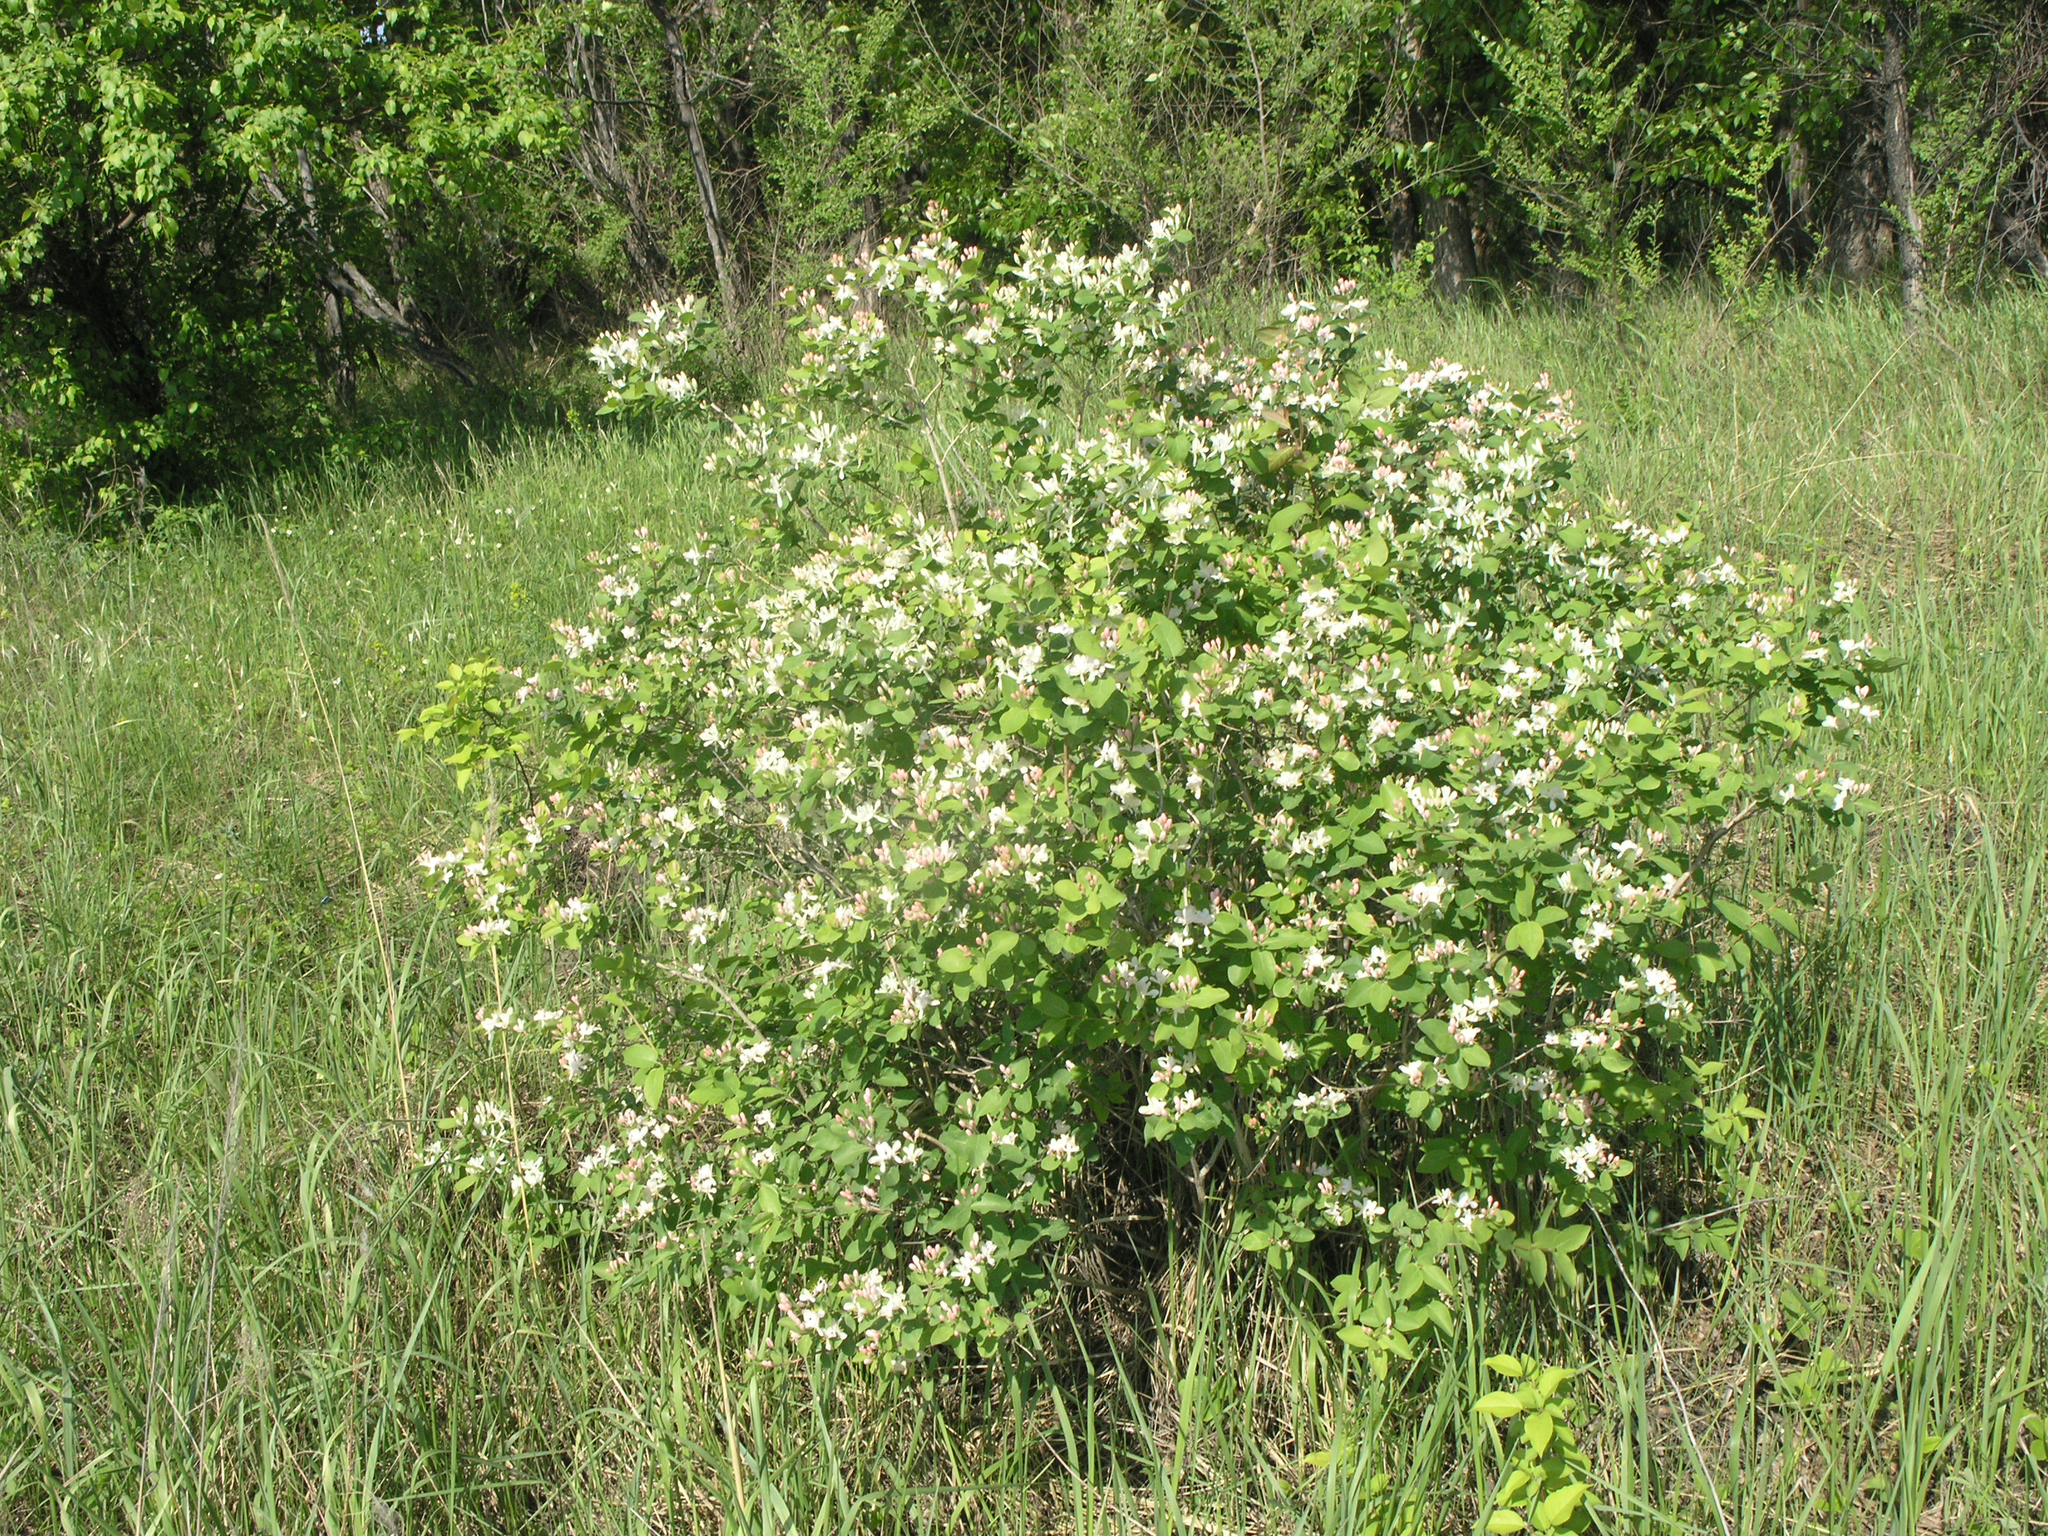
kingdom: Plantae
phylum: Tracheophyta
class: Magnoliopsida
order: Dipsacales
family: Caprifoliaceae
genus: Lonicera
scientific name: Lonicera tatarica
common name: Tatarian honeysuckle
